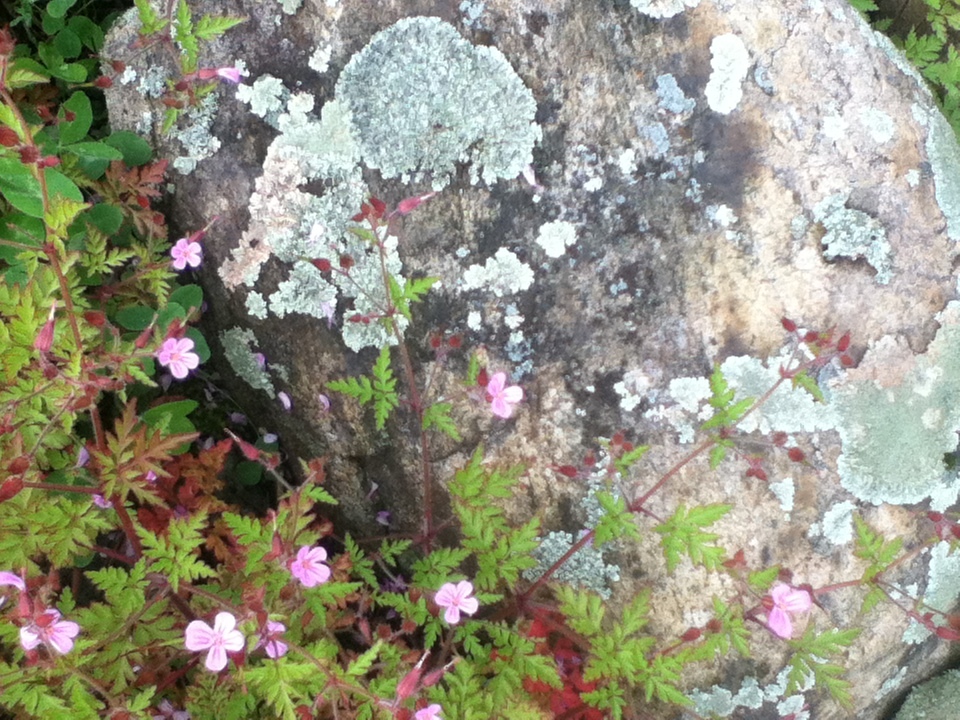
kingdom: Plantae
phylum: Tracheophyta
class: Magnoliopsida
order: Geraniales
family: Geraniaceae
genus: Geranium
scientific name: Geranium robertianum
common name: Herb-robert
